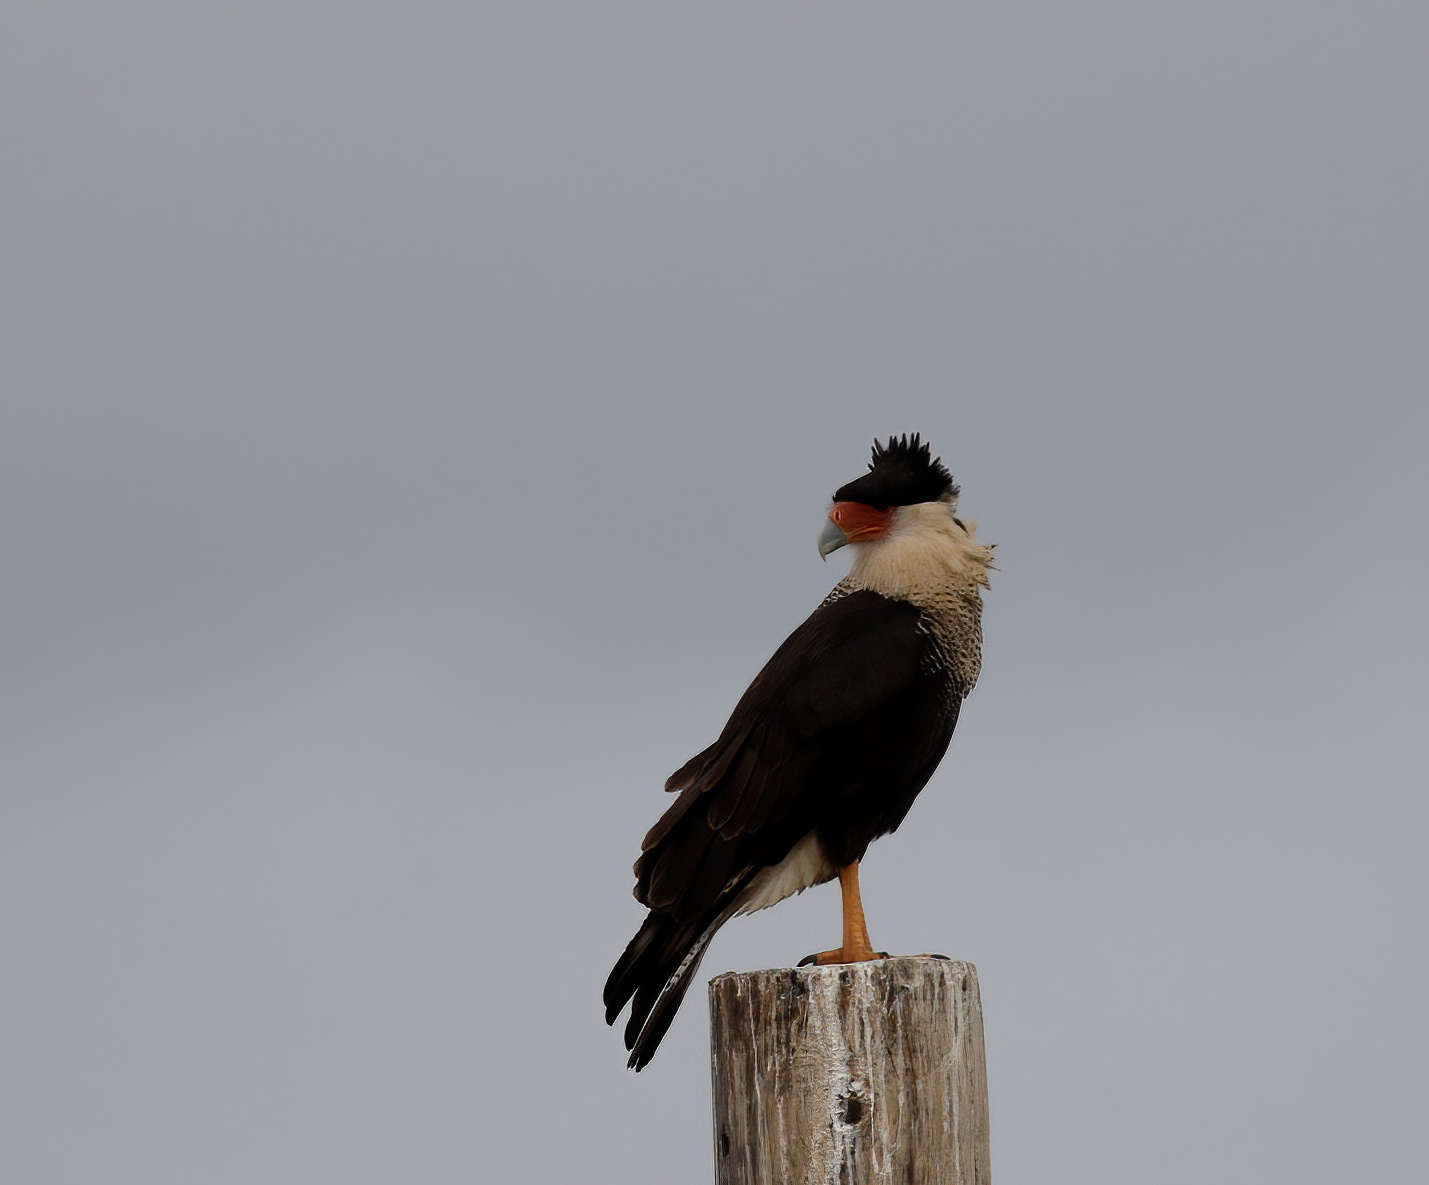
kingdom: Animalia
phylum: Chordata
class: Aves
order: Falconiformes
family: Falconidae
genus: Caracara
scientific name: Caracara plancus
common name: Southern caracara
